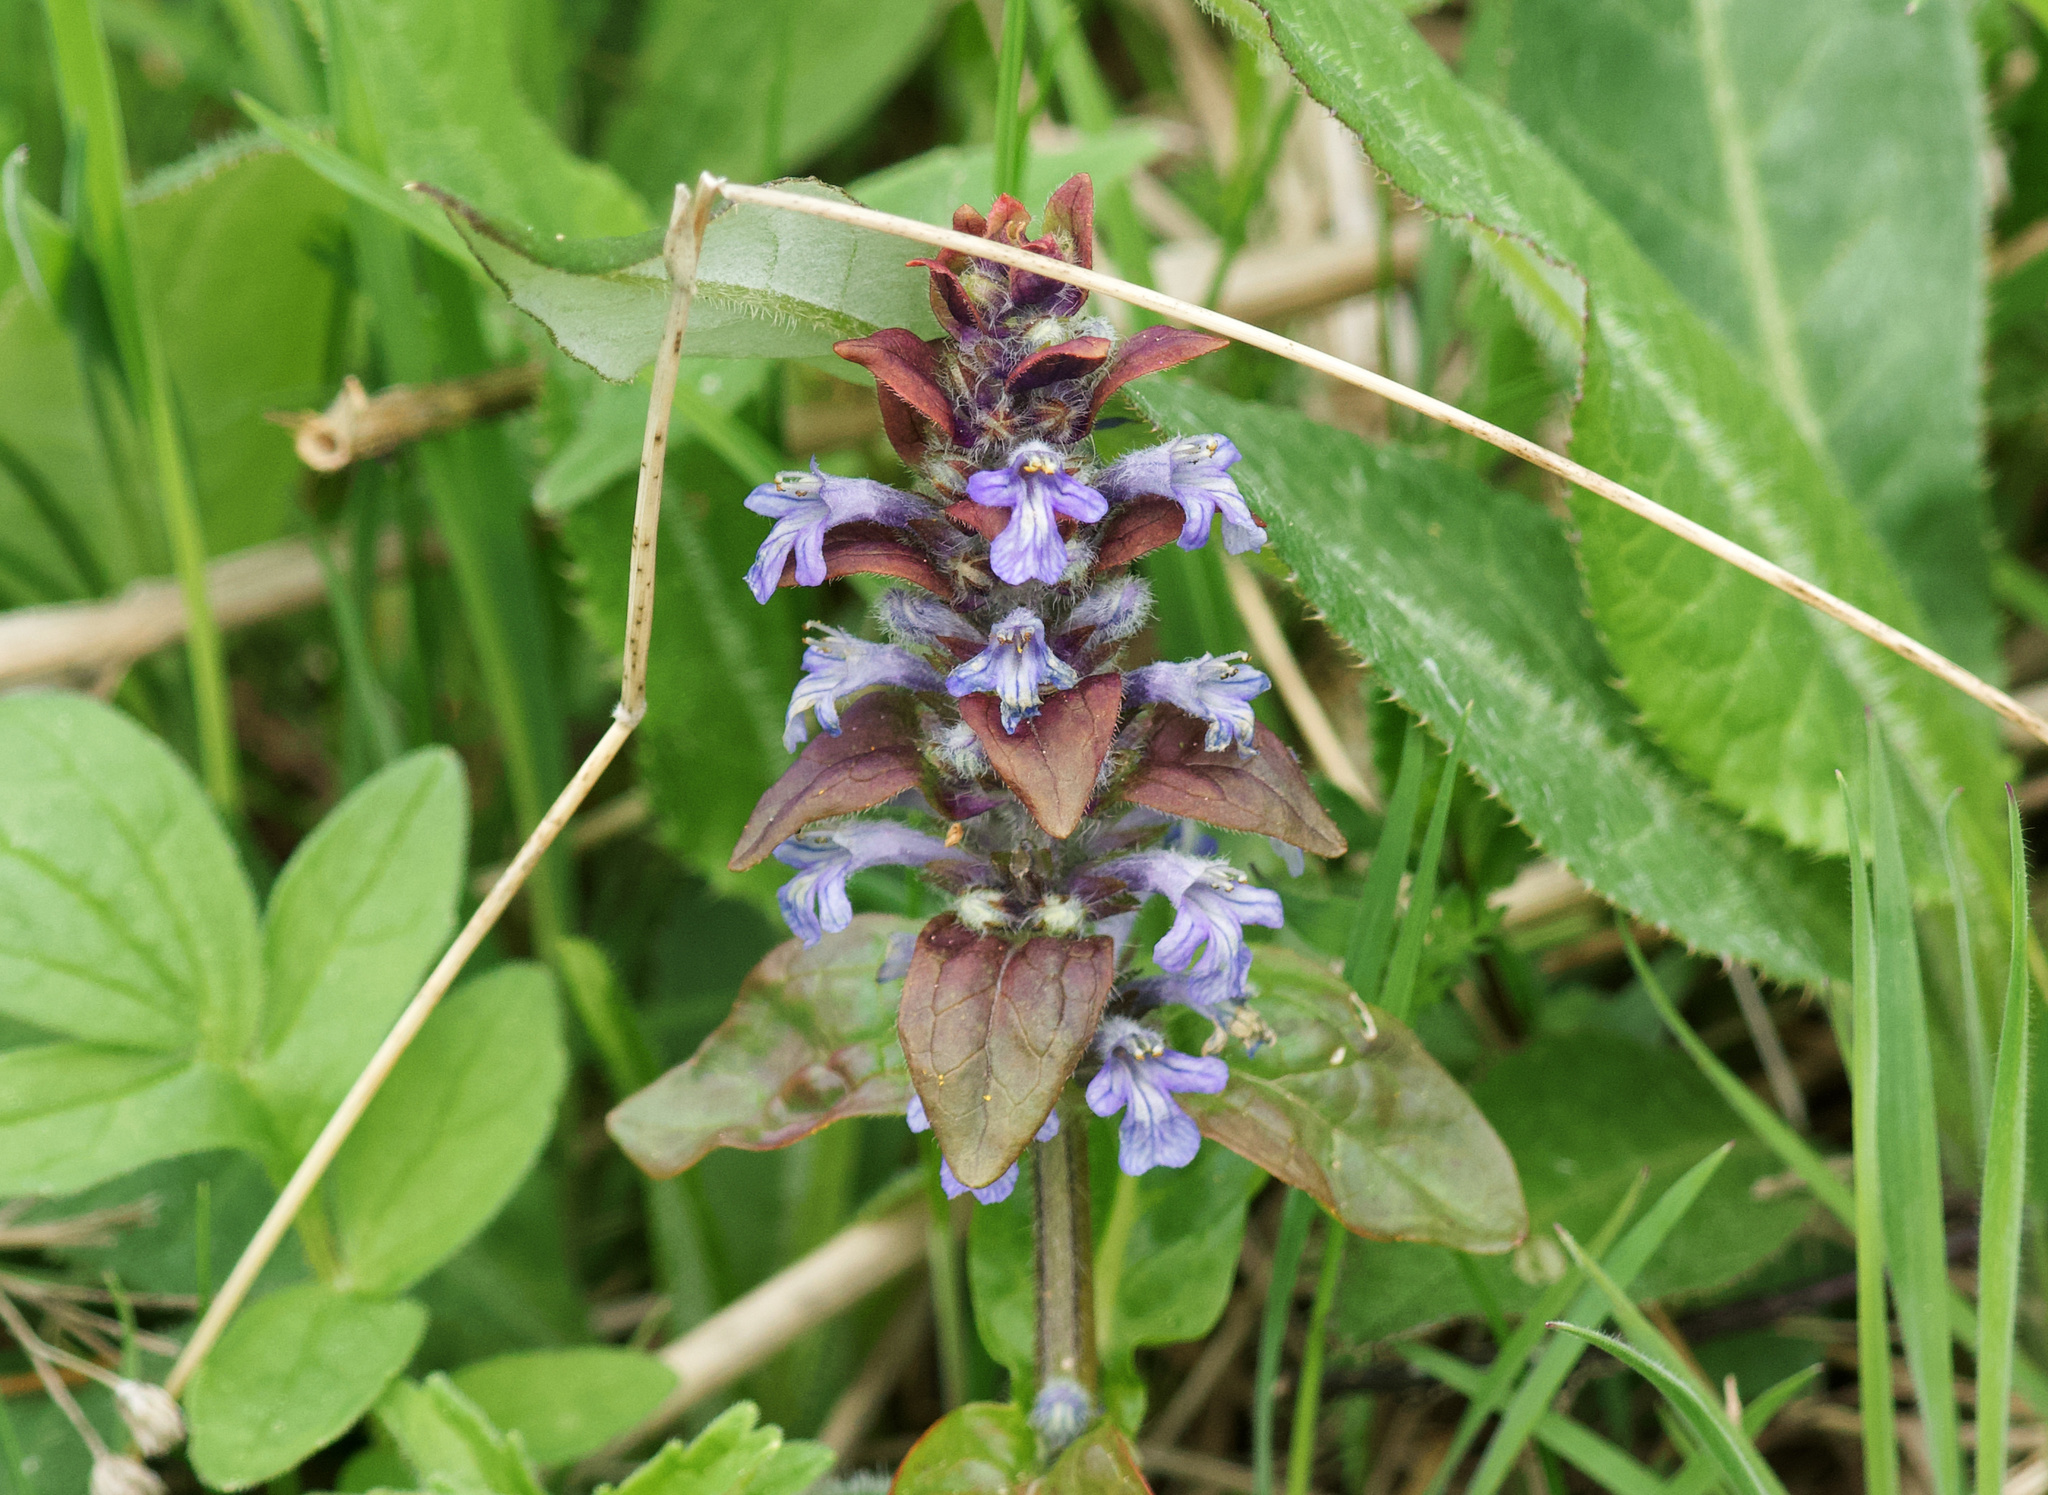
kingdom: Plantae
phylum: Tracheophyta
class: Magnoliopsida
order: Lamiales
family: Lamiaceae
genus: Ajuga
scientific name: Ajuga reptans
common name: Bugle
